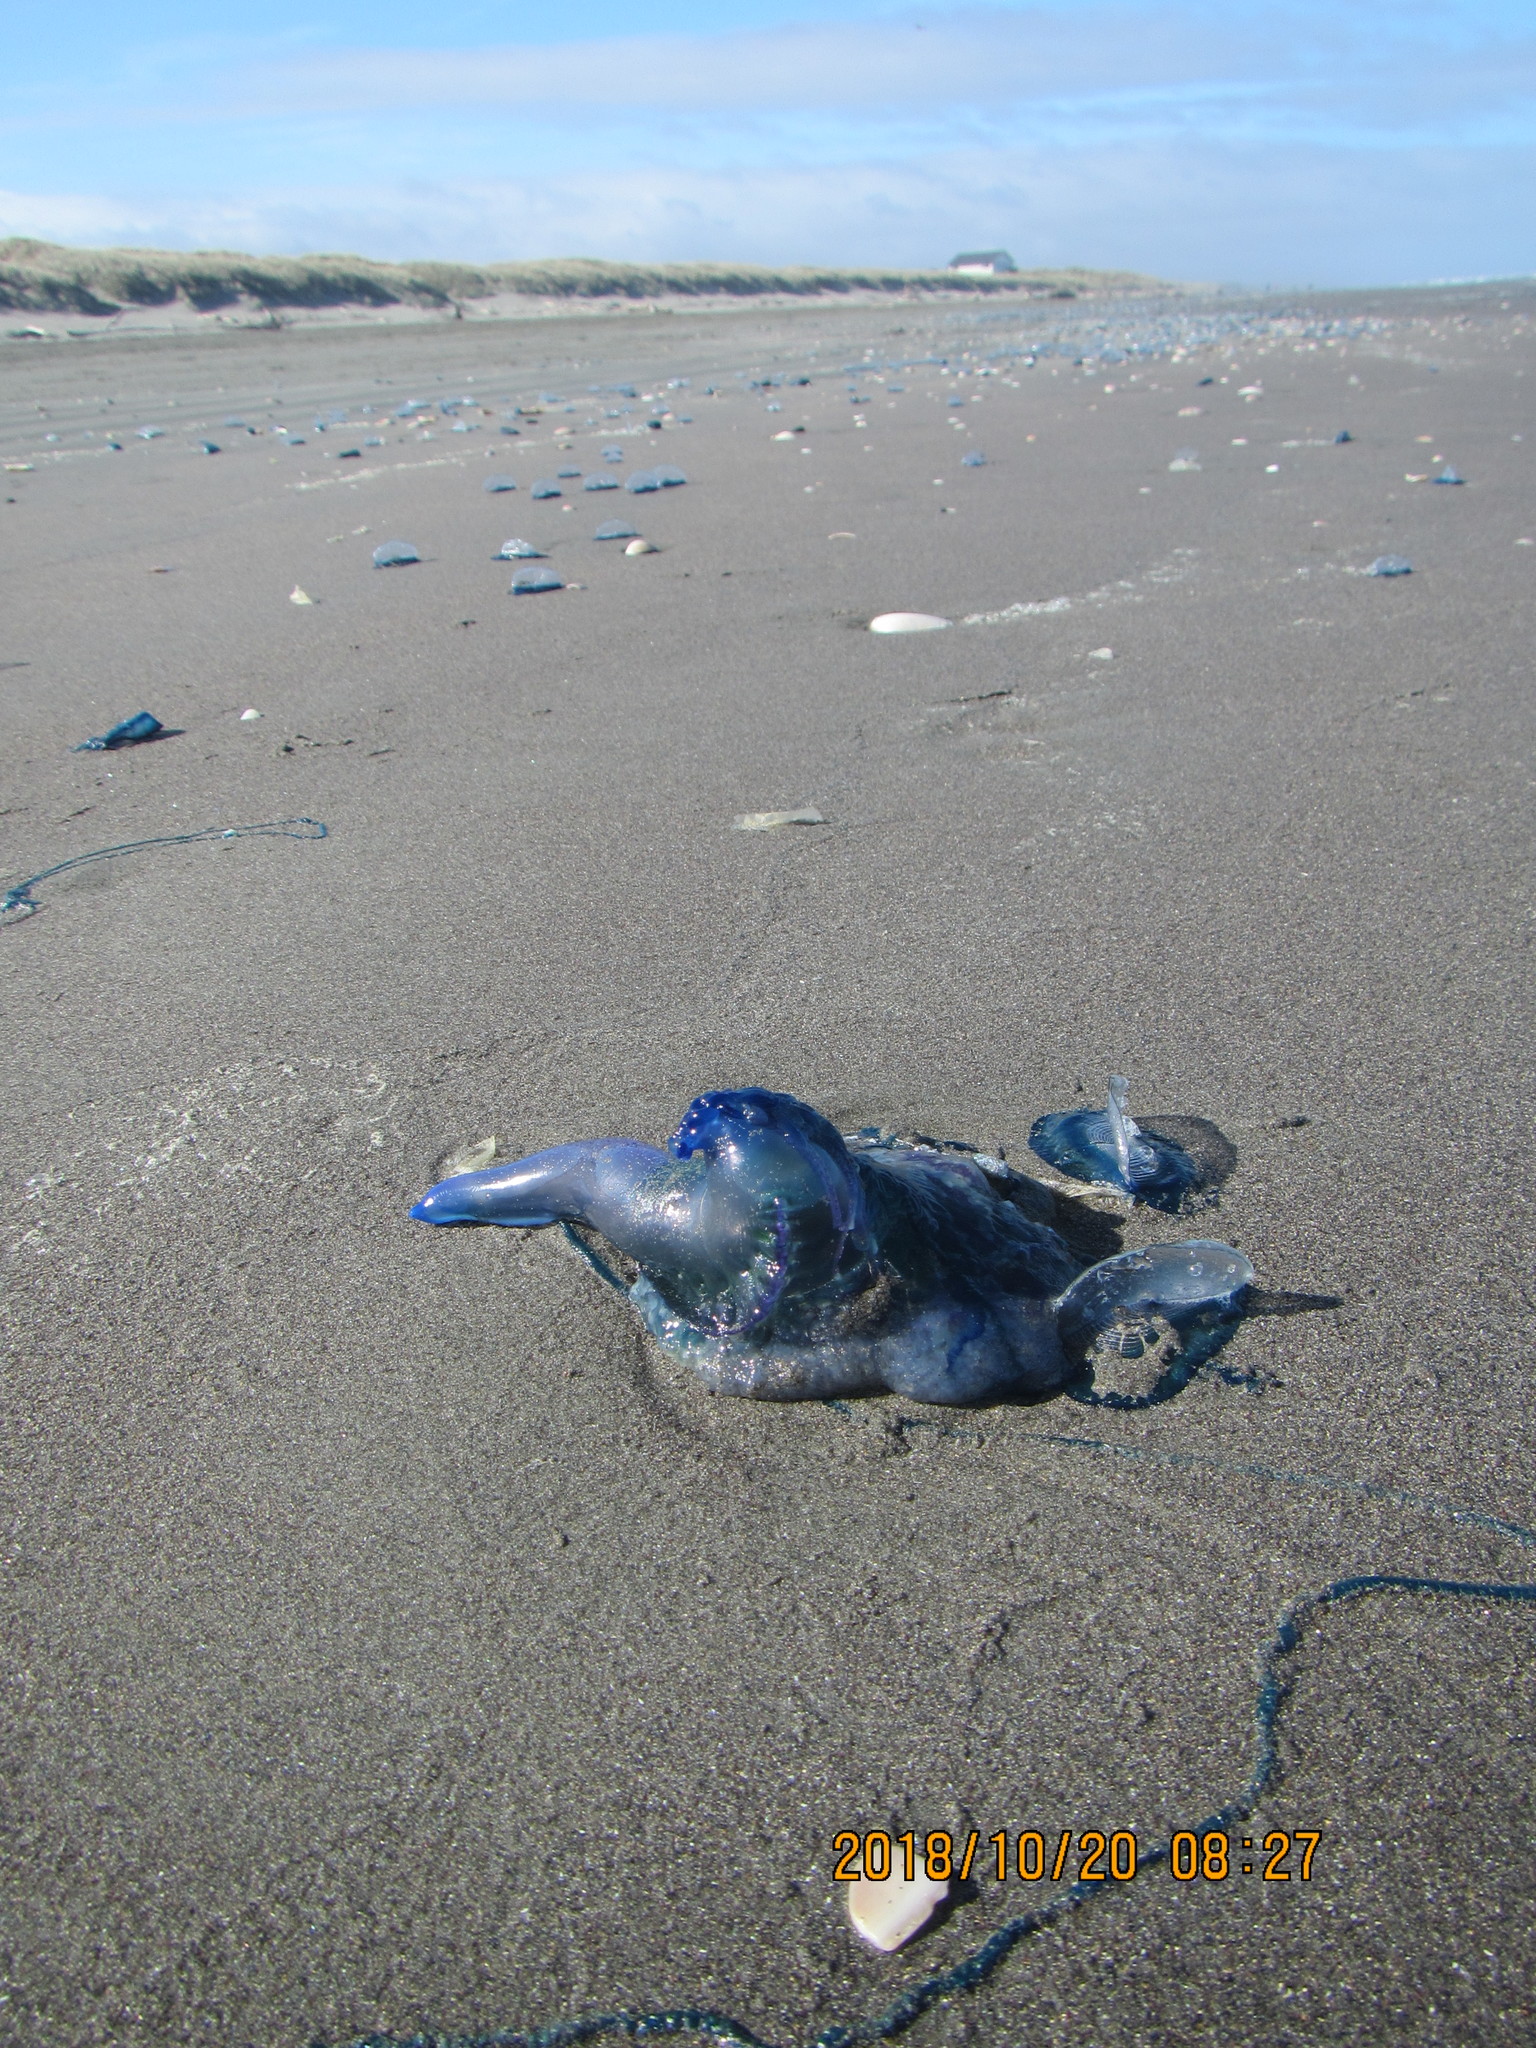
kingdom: Animalia
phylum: Cnidaria
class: Hydrozoa
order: Siphonophorae
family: Physaliidae
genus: Physalia
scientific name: Physalia physalis
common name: Portuguese man-of-war
